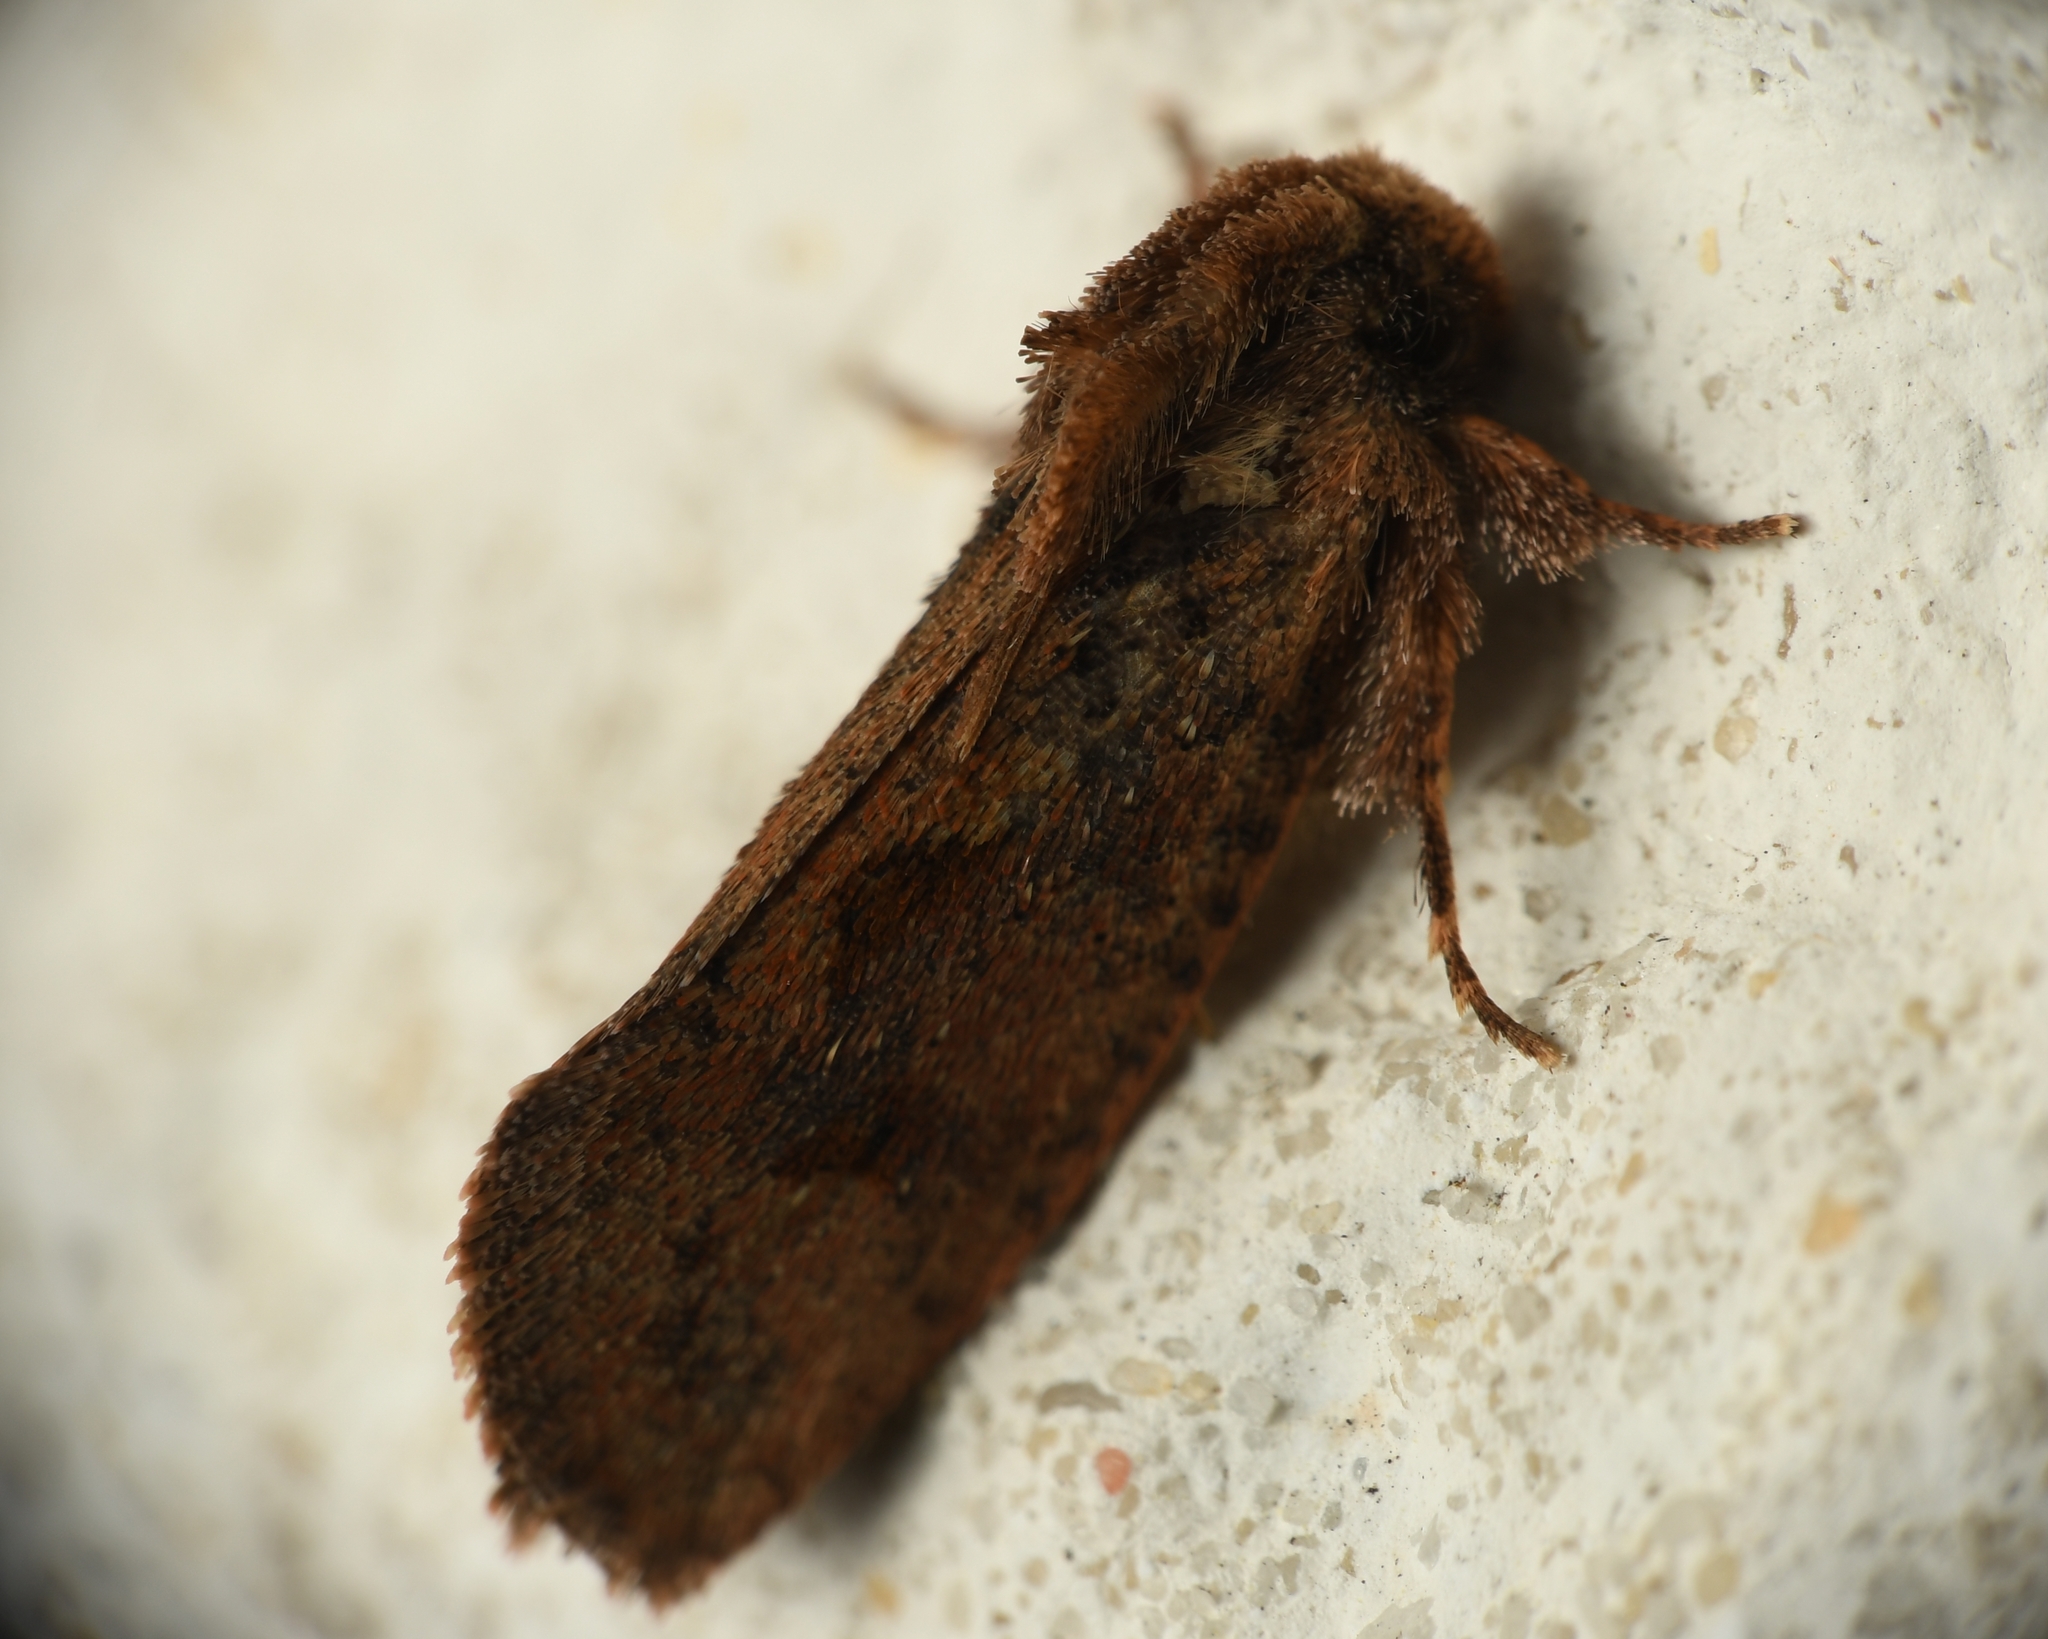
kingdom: Animalia
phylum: Arthropoda
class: Insecta
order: Lepidoptera
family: Tineidae
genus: Acrolophus
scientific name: Acrolophus walsinghami
